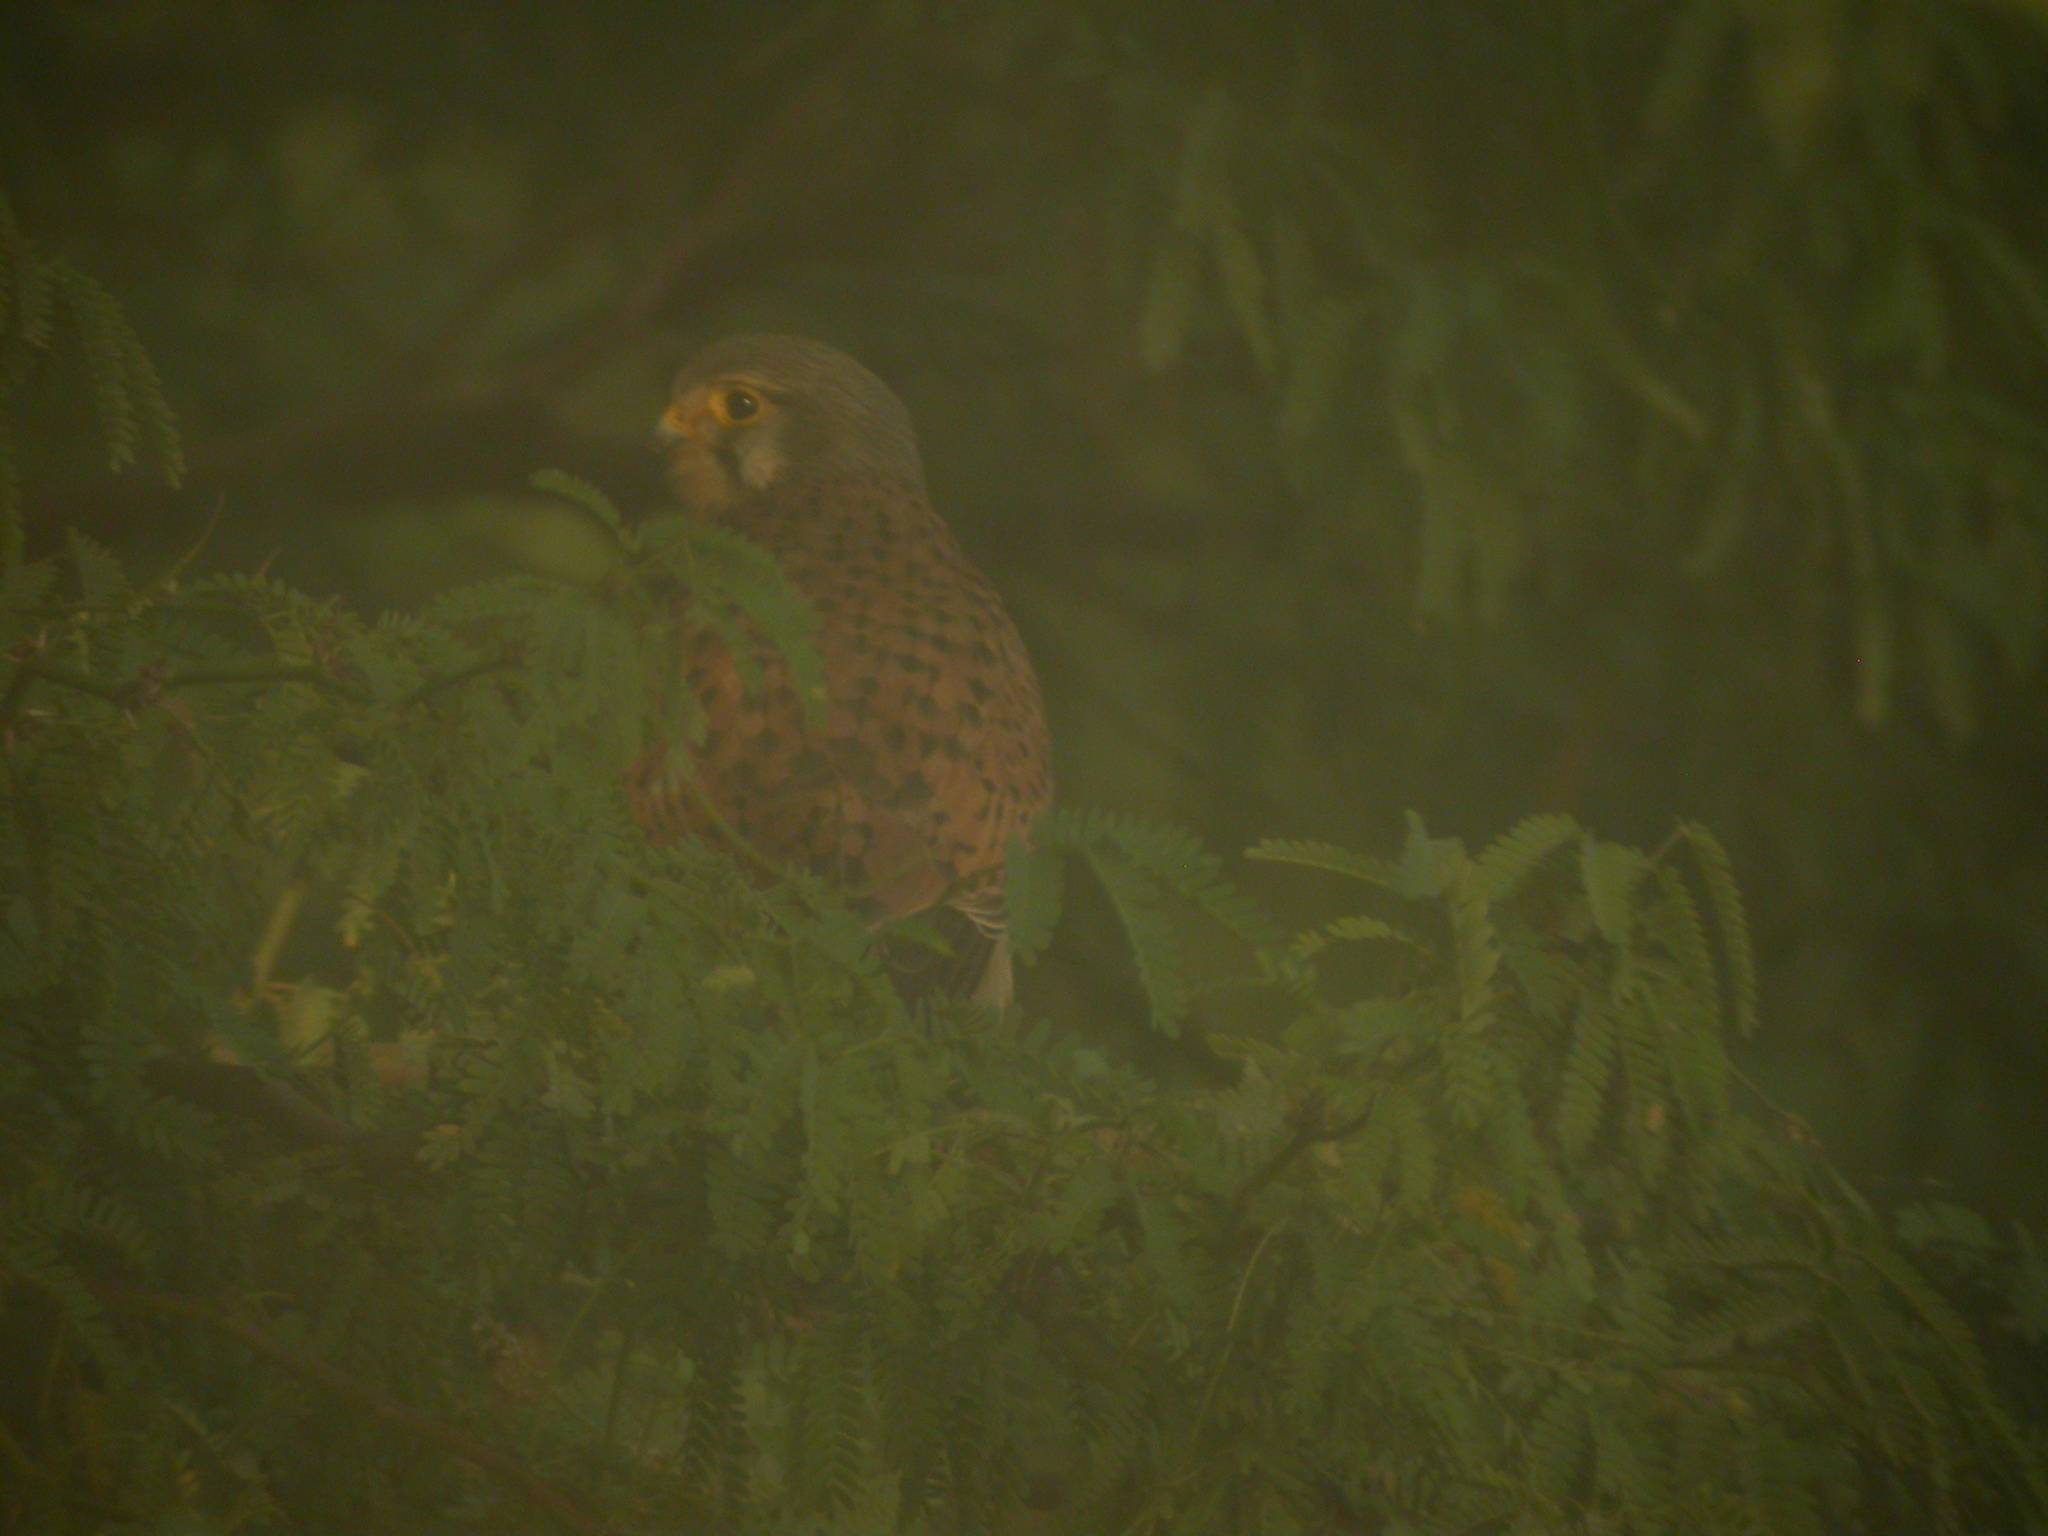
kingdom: Animalia
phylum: Chordata
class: Aves
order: Falconiformes
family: Falconidae
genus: Falco
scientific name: Falco tinnunculus
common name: Common kestrel
